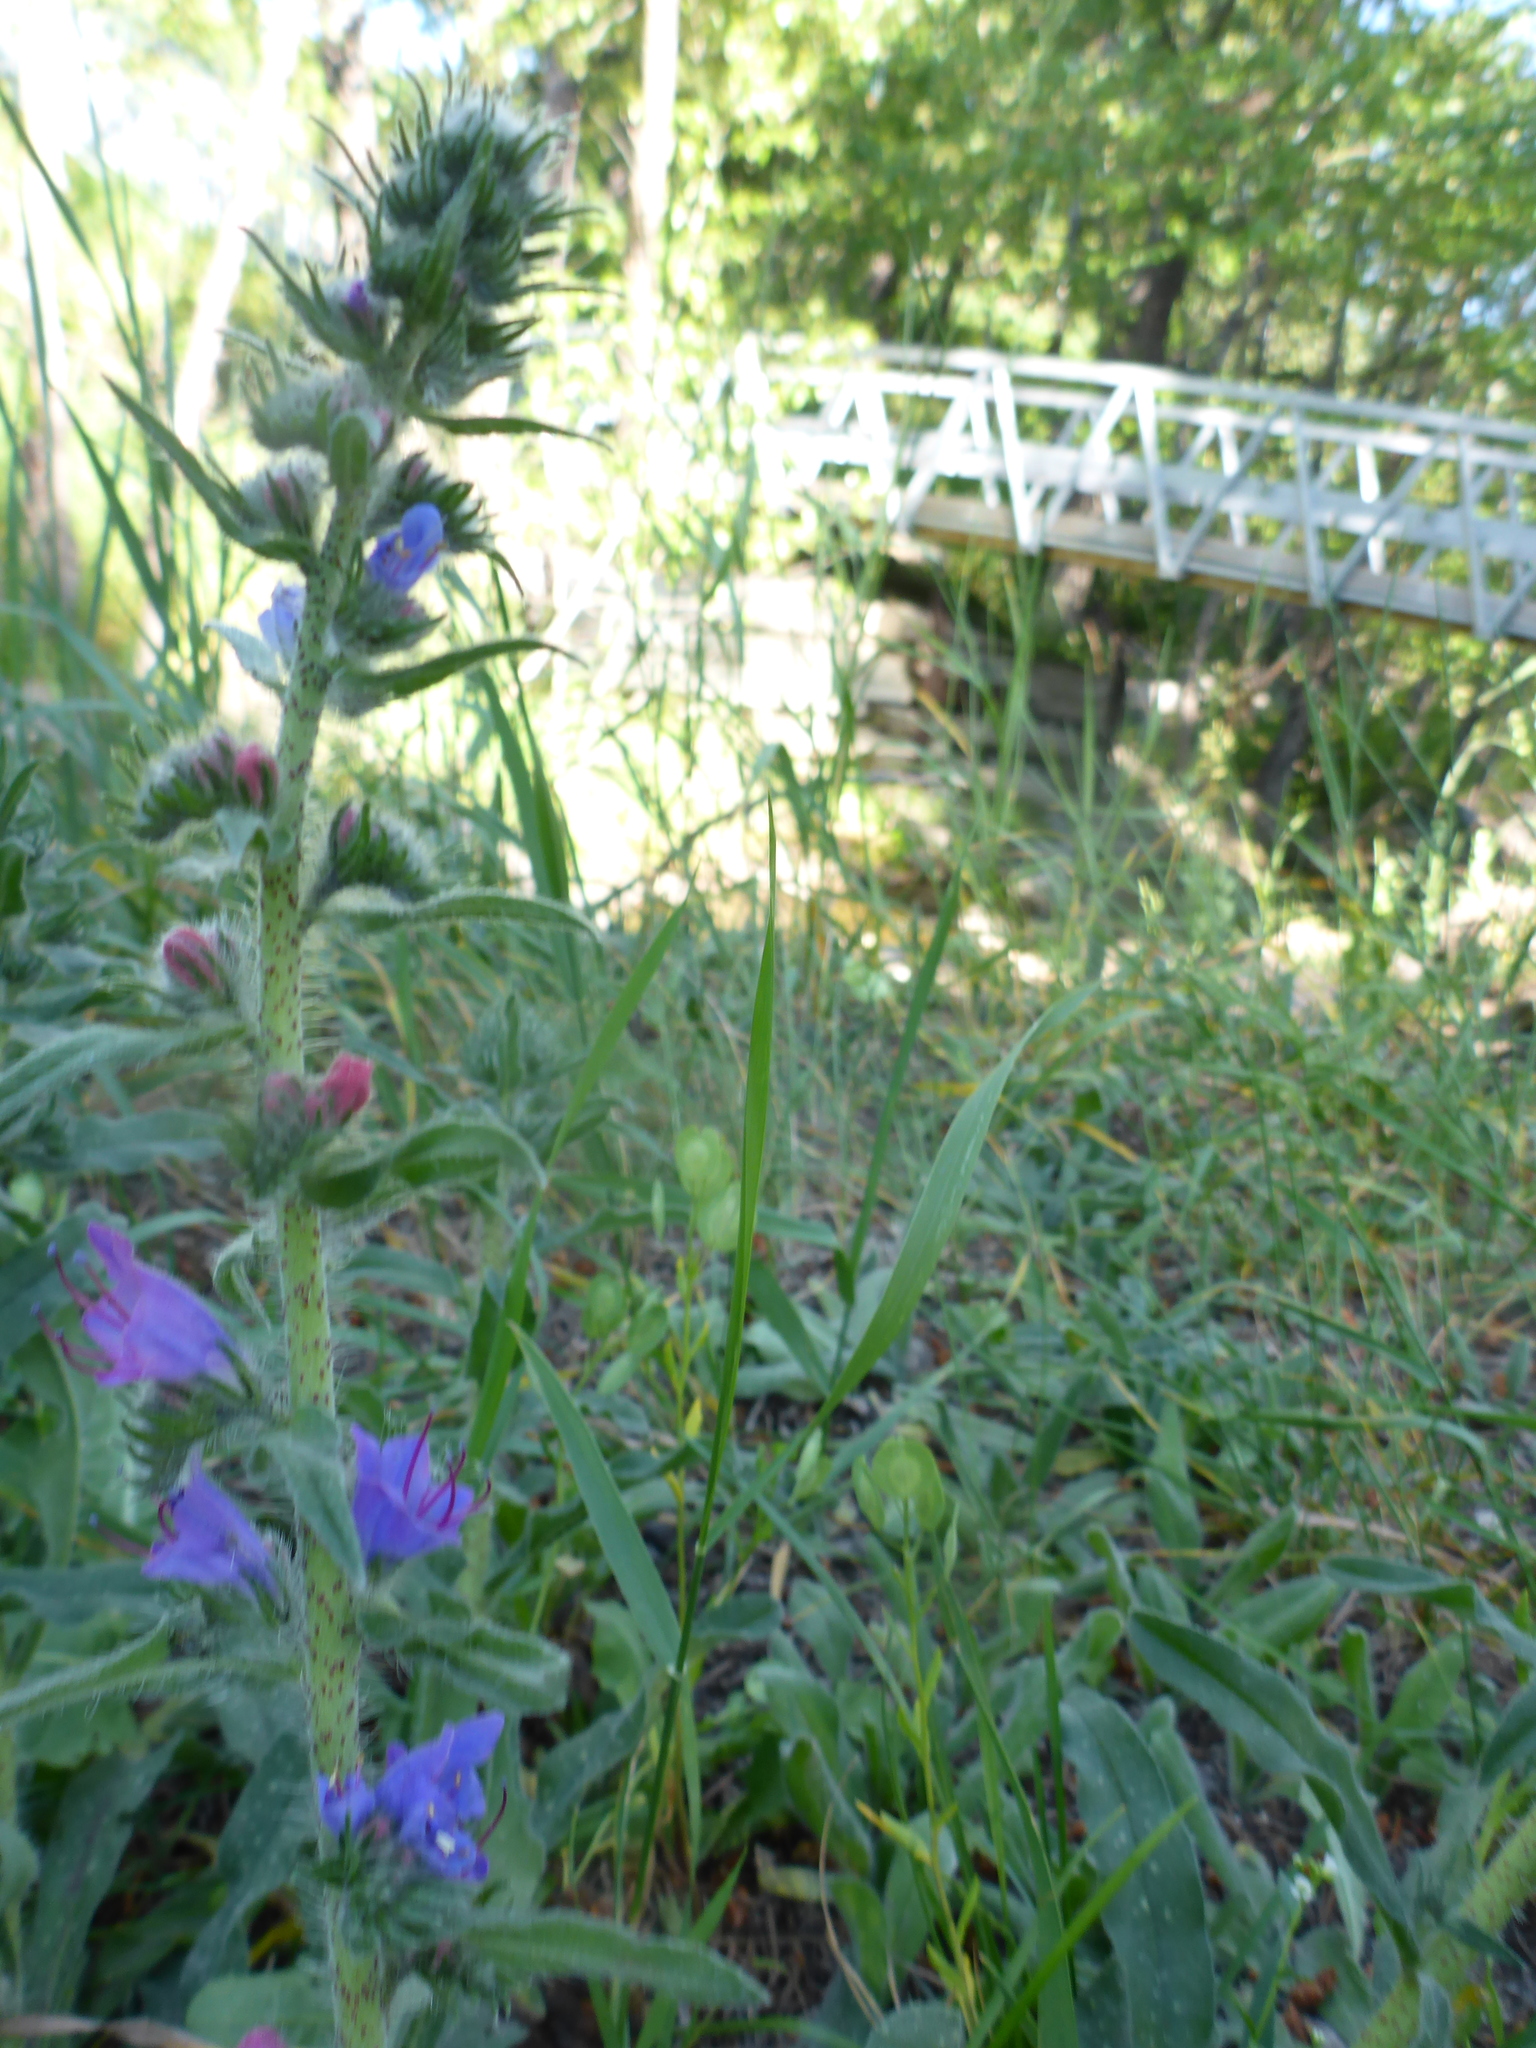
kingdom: Plantae
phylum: Tracheophyta
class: Magnoliopsida
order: Boraginales
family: Boraginaceae
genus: Echium
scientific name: Echium vulgare
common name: Common viper's bugloss
